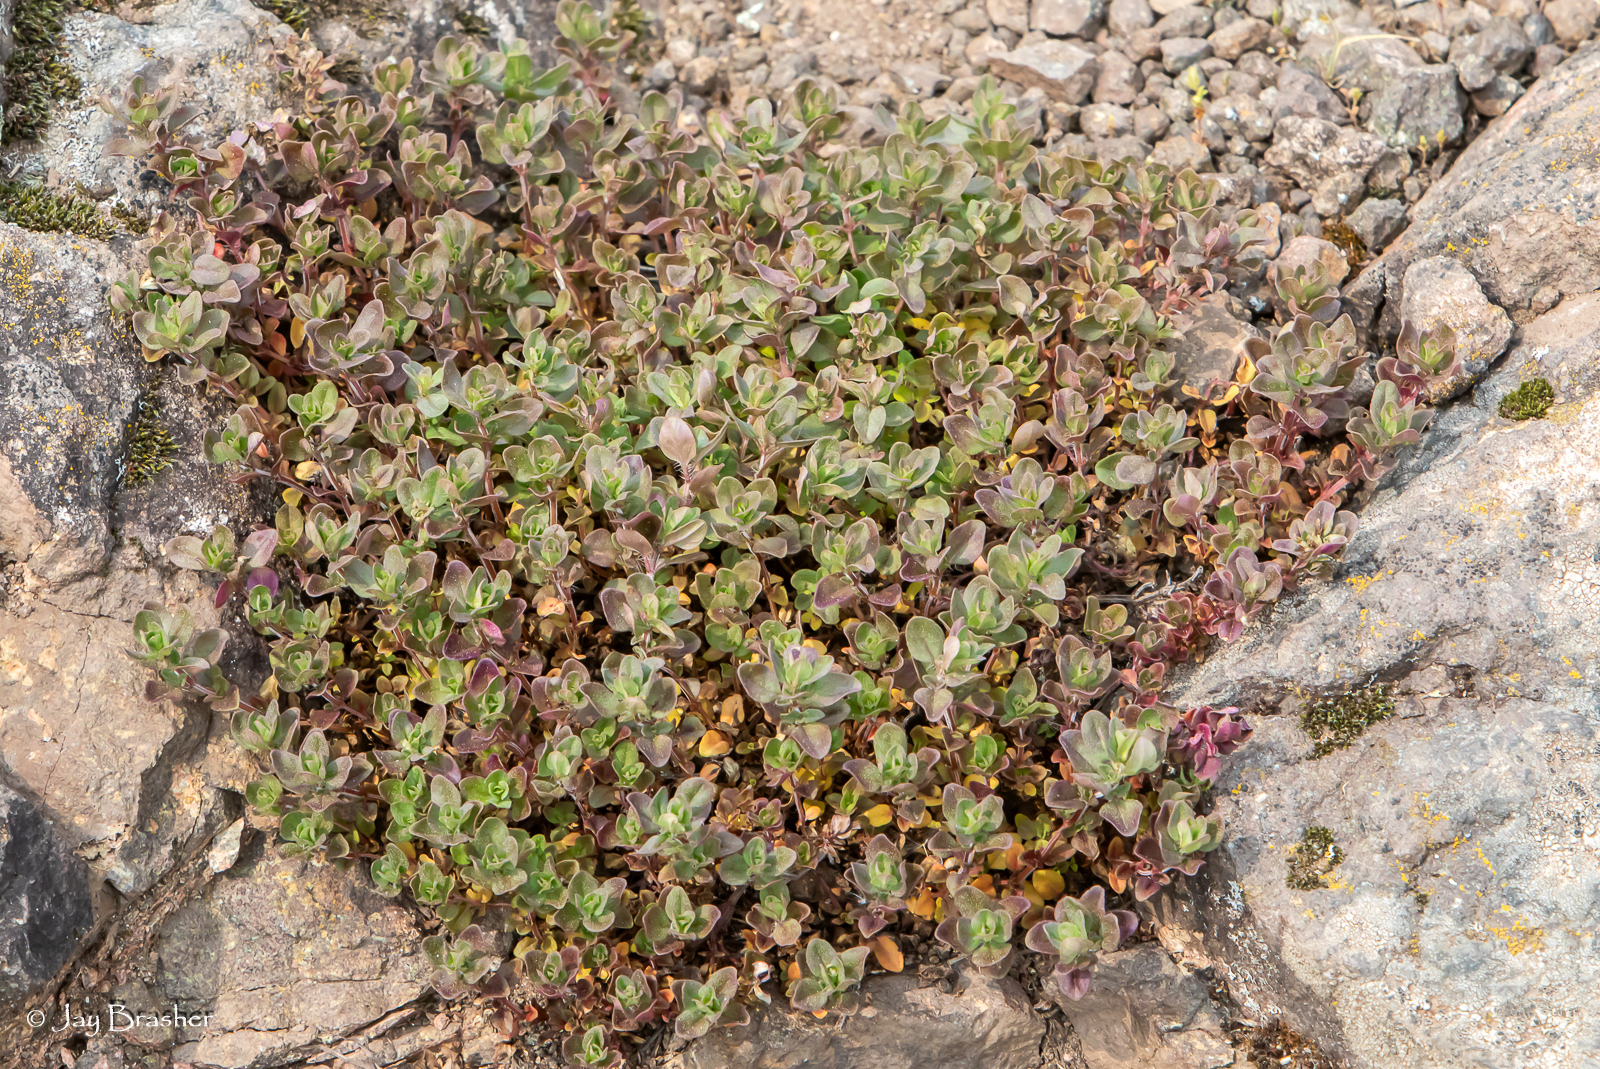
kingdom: Plantae
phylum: Tracheophyta
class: Magnoliopsida
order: Lamiales
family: Lamiaceae
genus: Thymus
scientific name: Thymus pulegioides
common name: Large thyme
